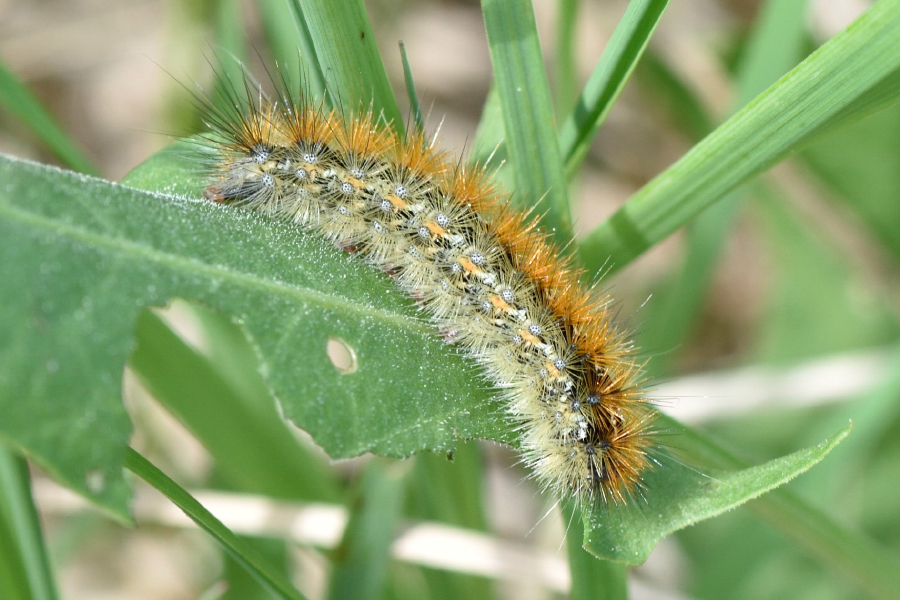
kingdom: Animalia
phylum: Arthropoda
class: Insecta
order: Lepidoptera
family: Erebidae
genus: Rhyparia
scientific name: Rhyparia purpurata
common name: Purple tiger
